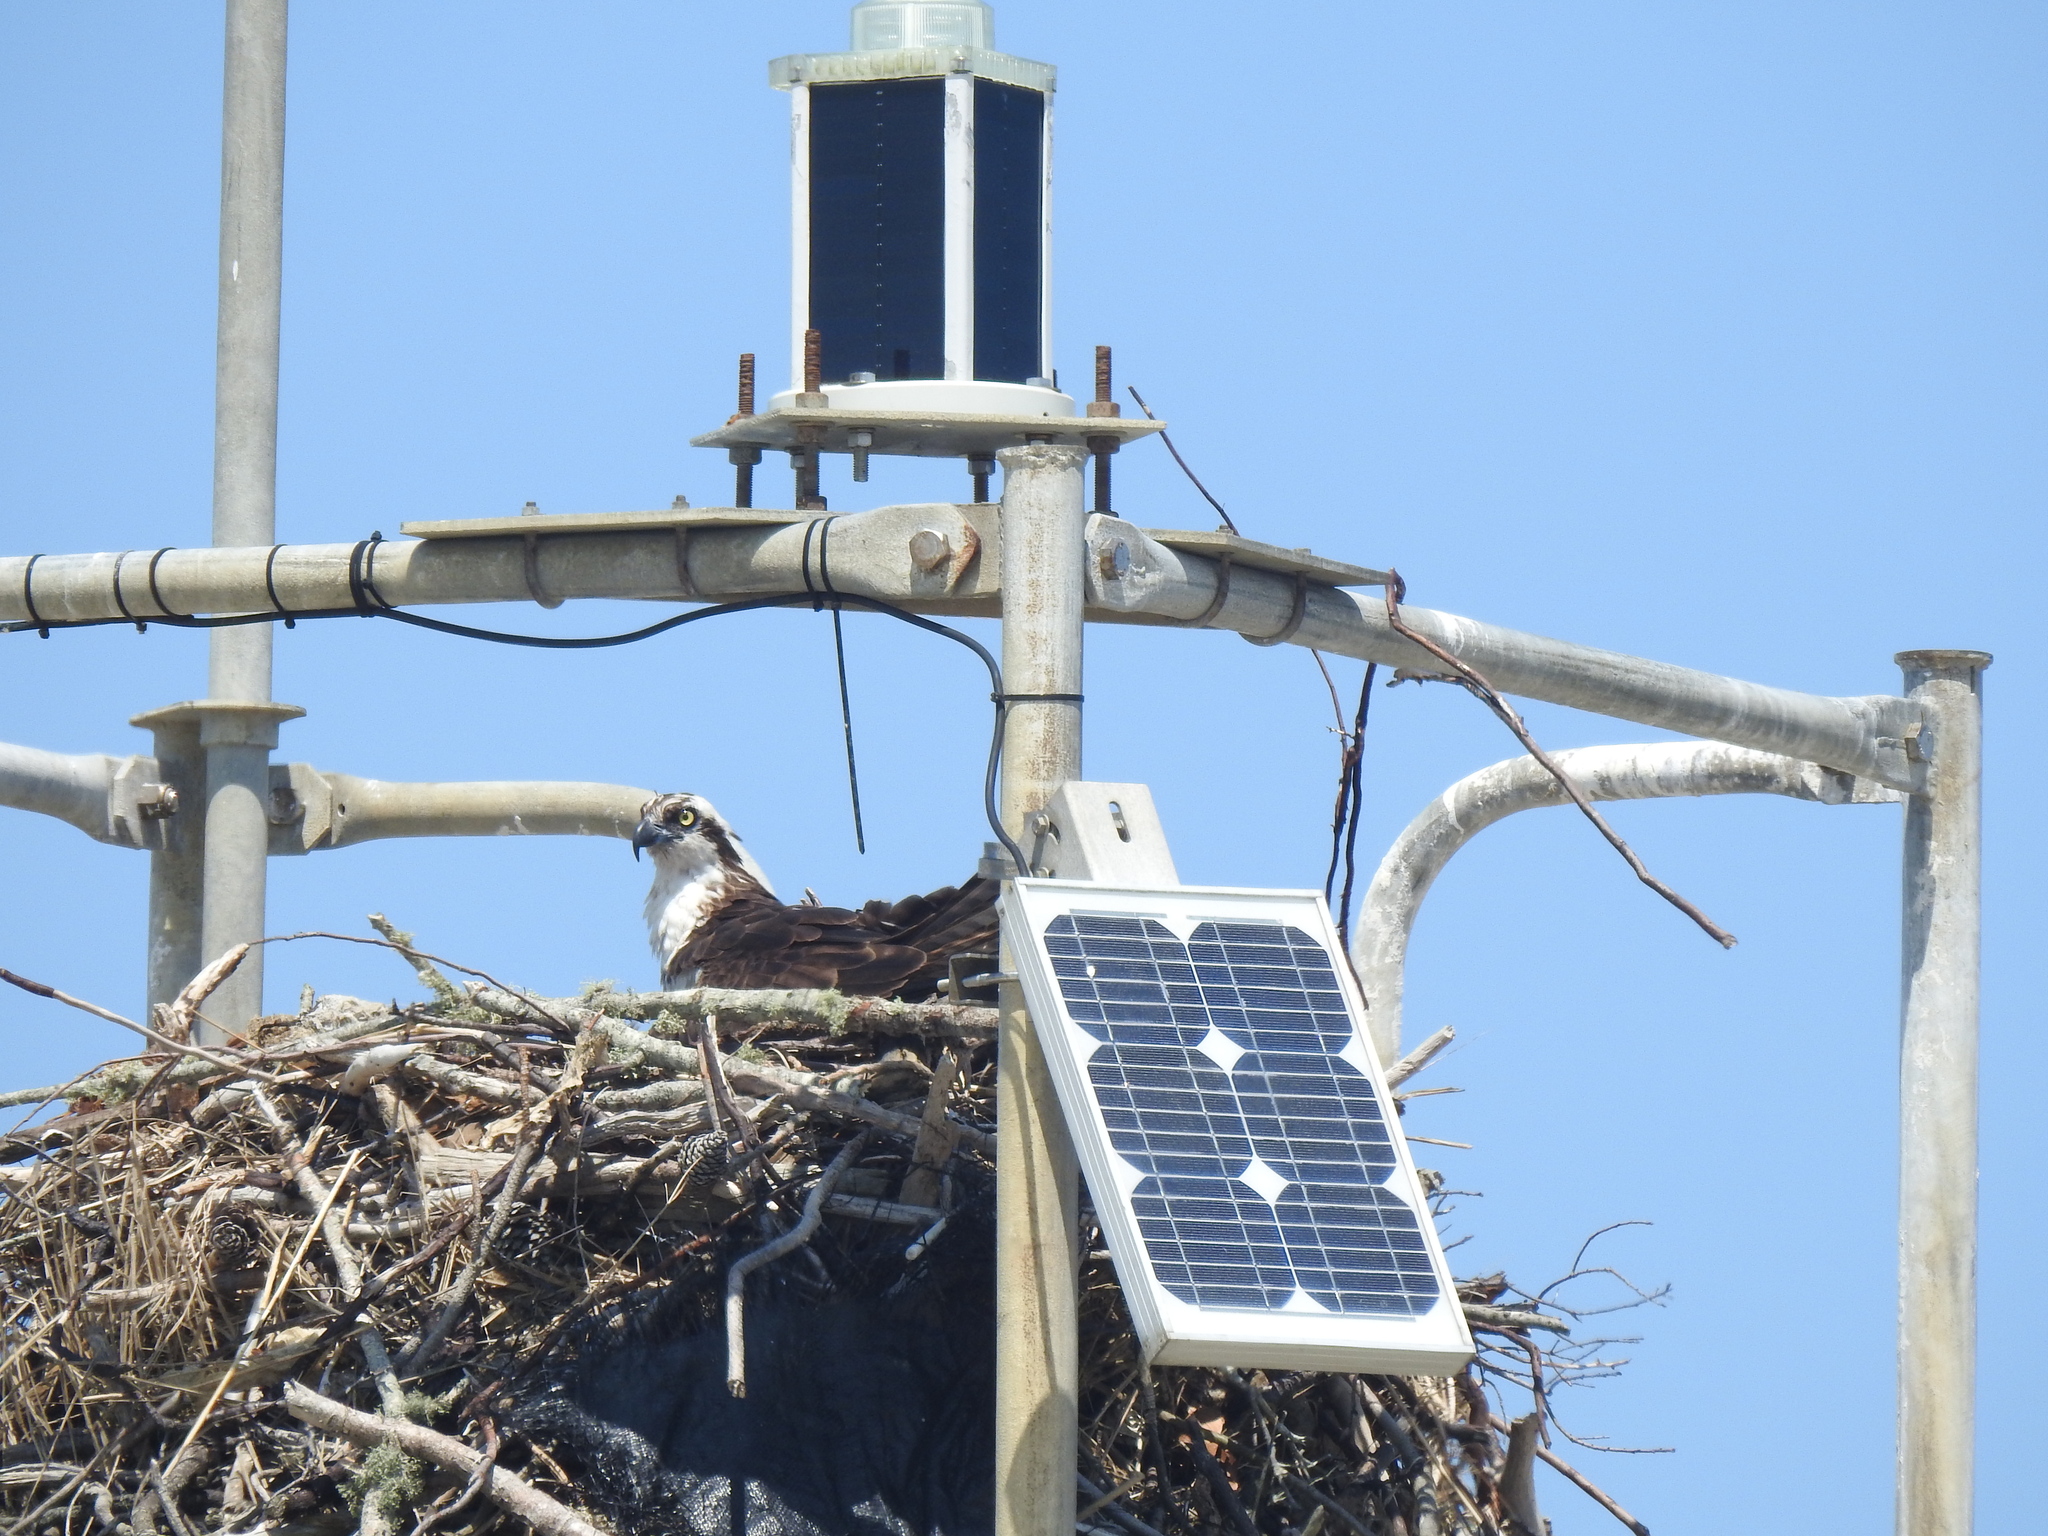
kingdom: Animalia
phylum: Chordata
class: Aves
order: Accipitriformes
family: Pandionidae
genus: Pandion
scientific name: Pandion haliaetus
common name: Osprey
